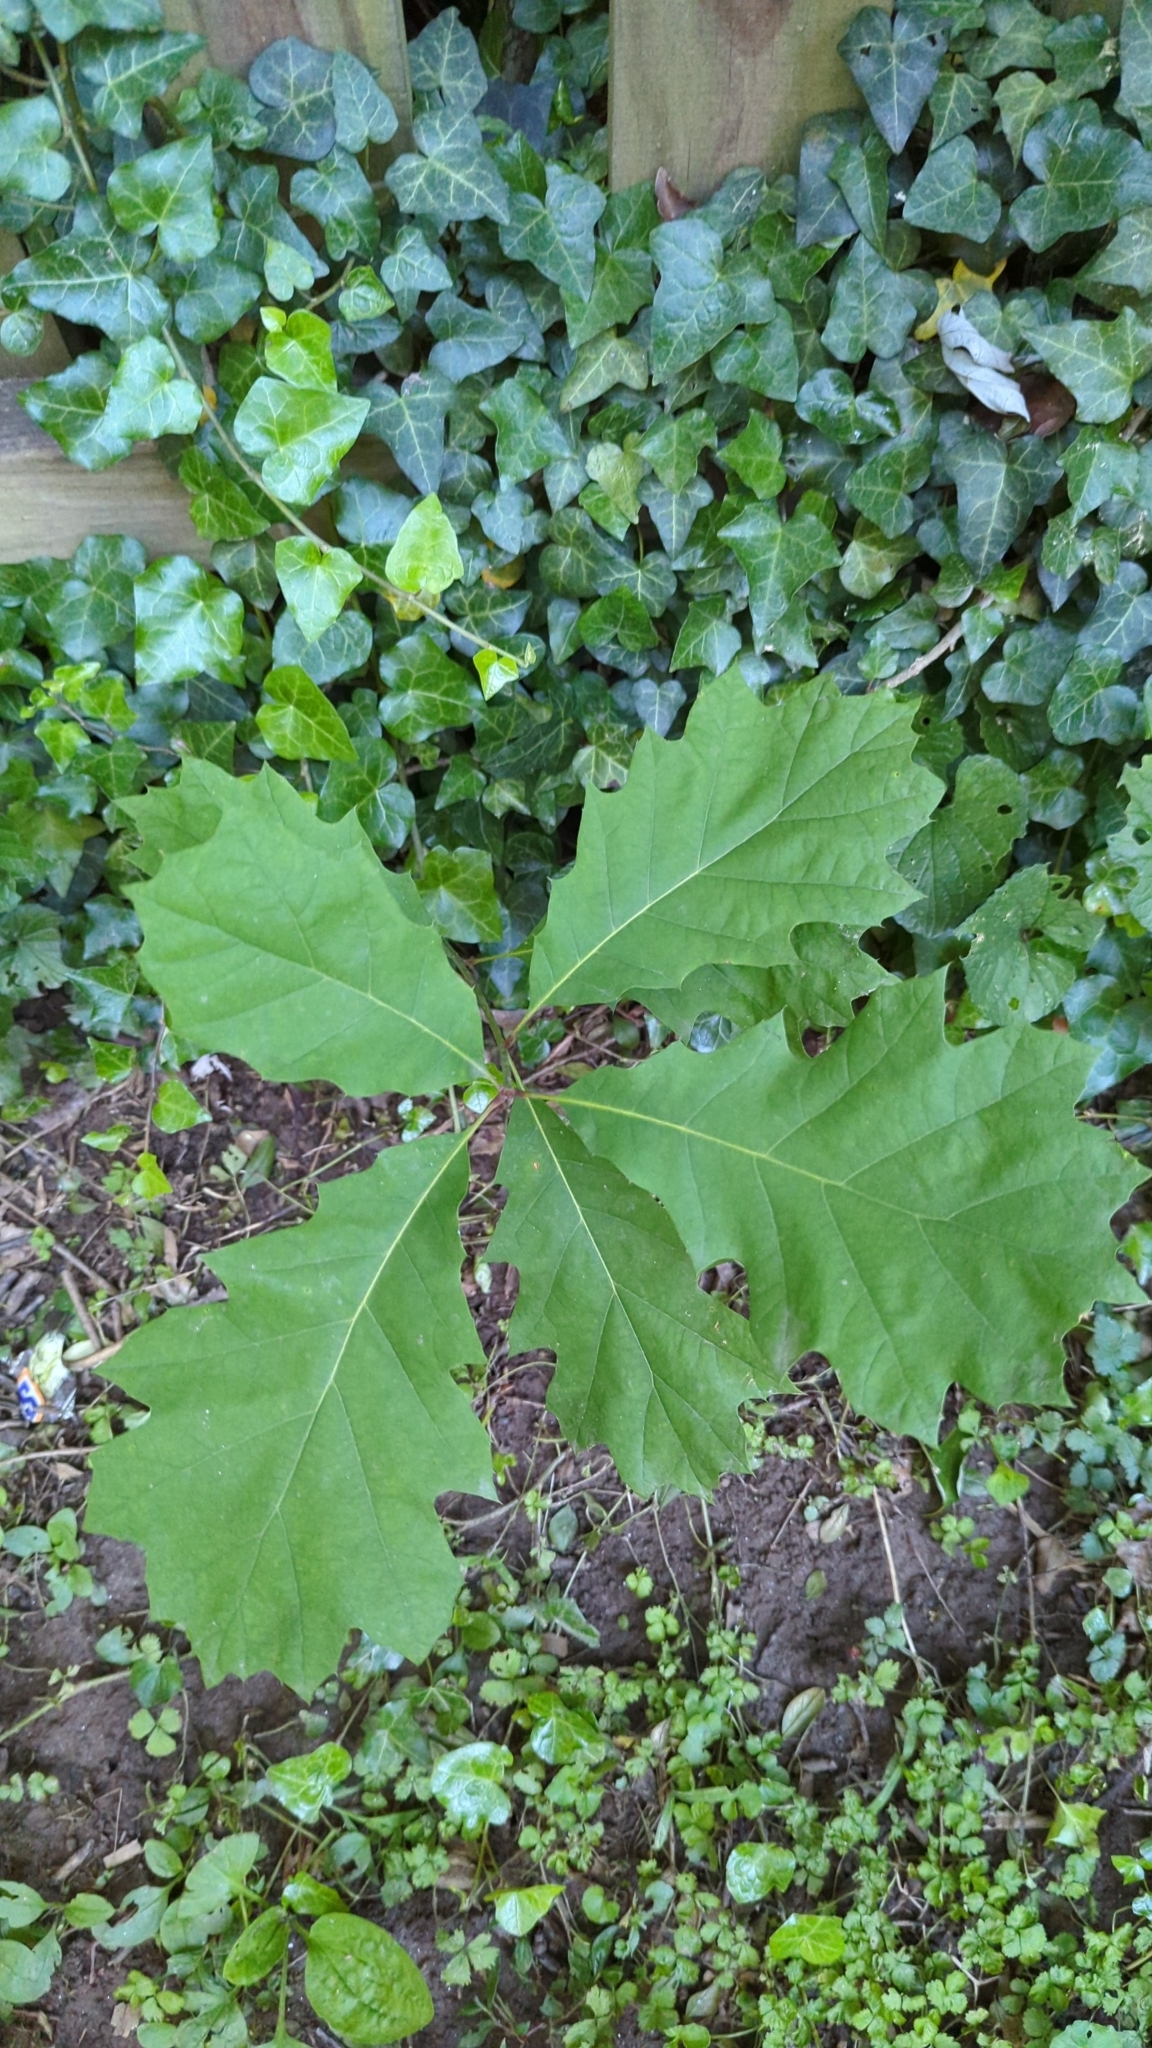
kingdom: Plantae
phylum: Tracheophyta
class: Magnoliopsida
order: Fagales
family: Fagaceae
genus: Quercus
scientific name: Quercus rubra
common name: Red oak
